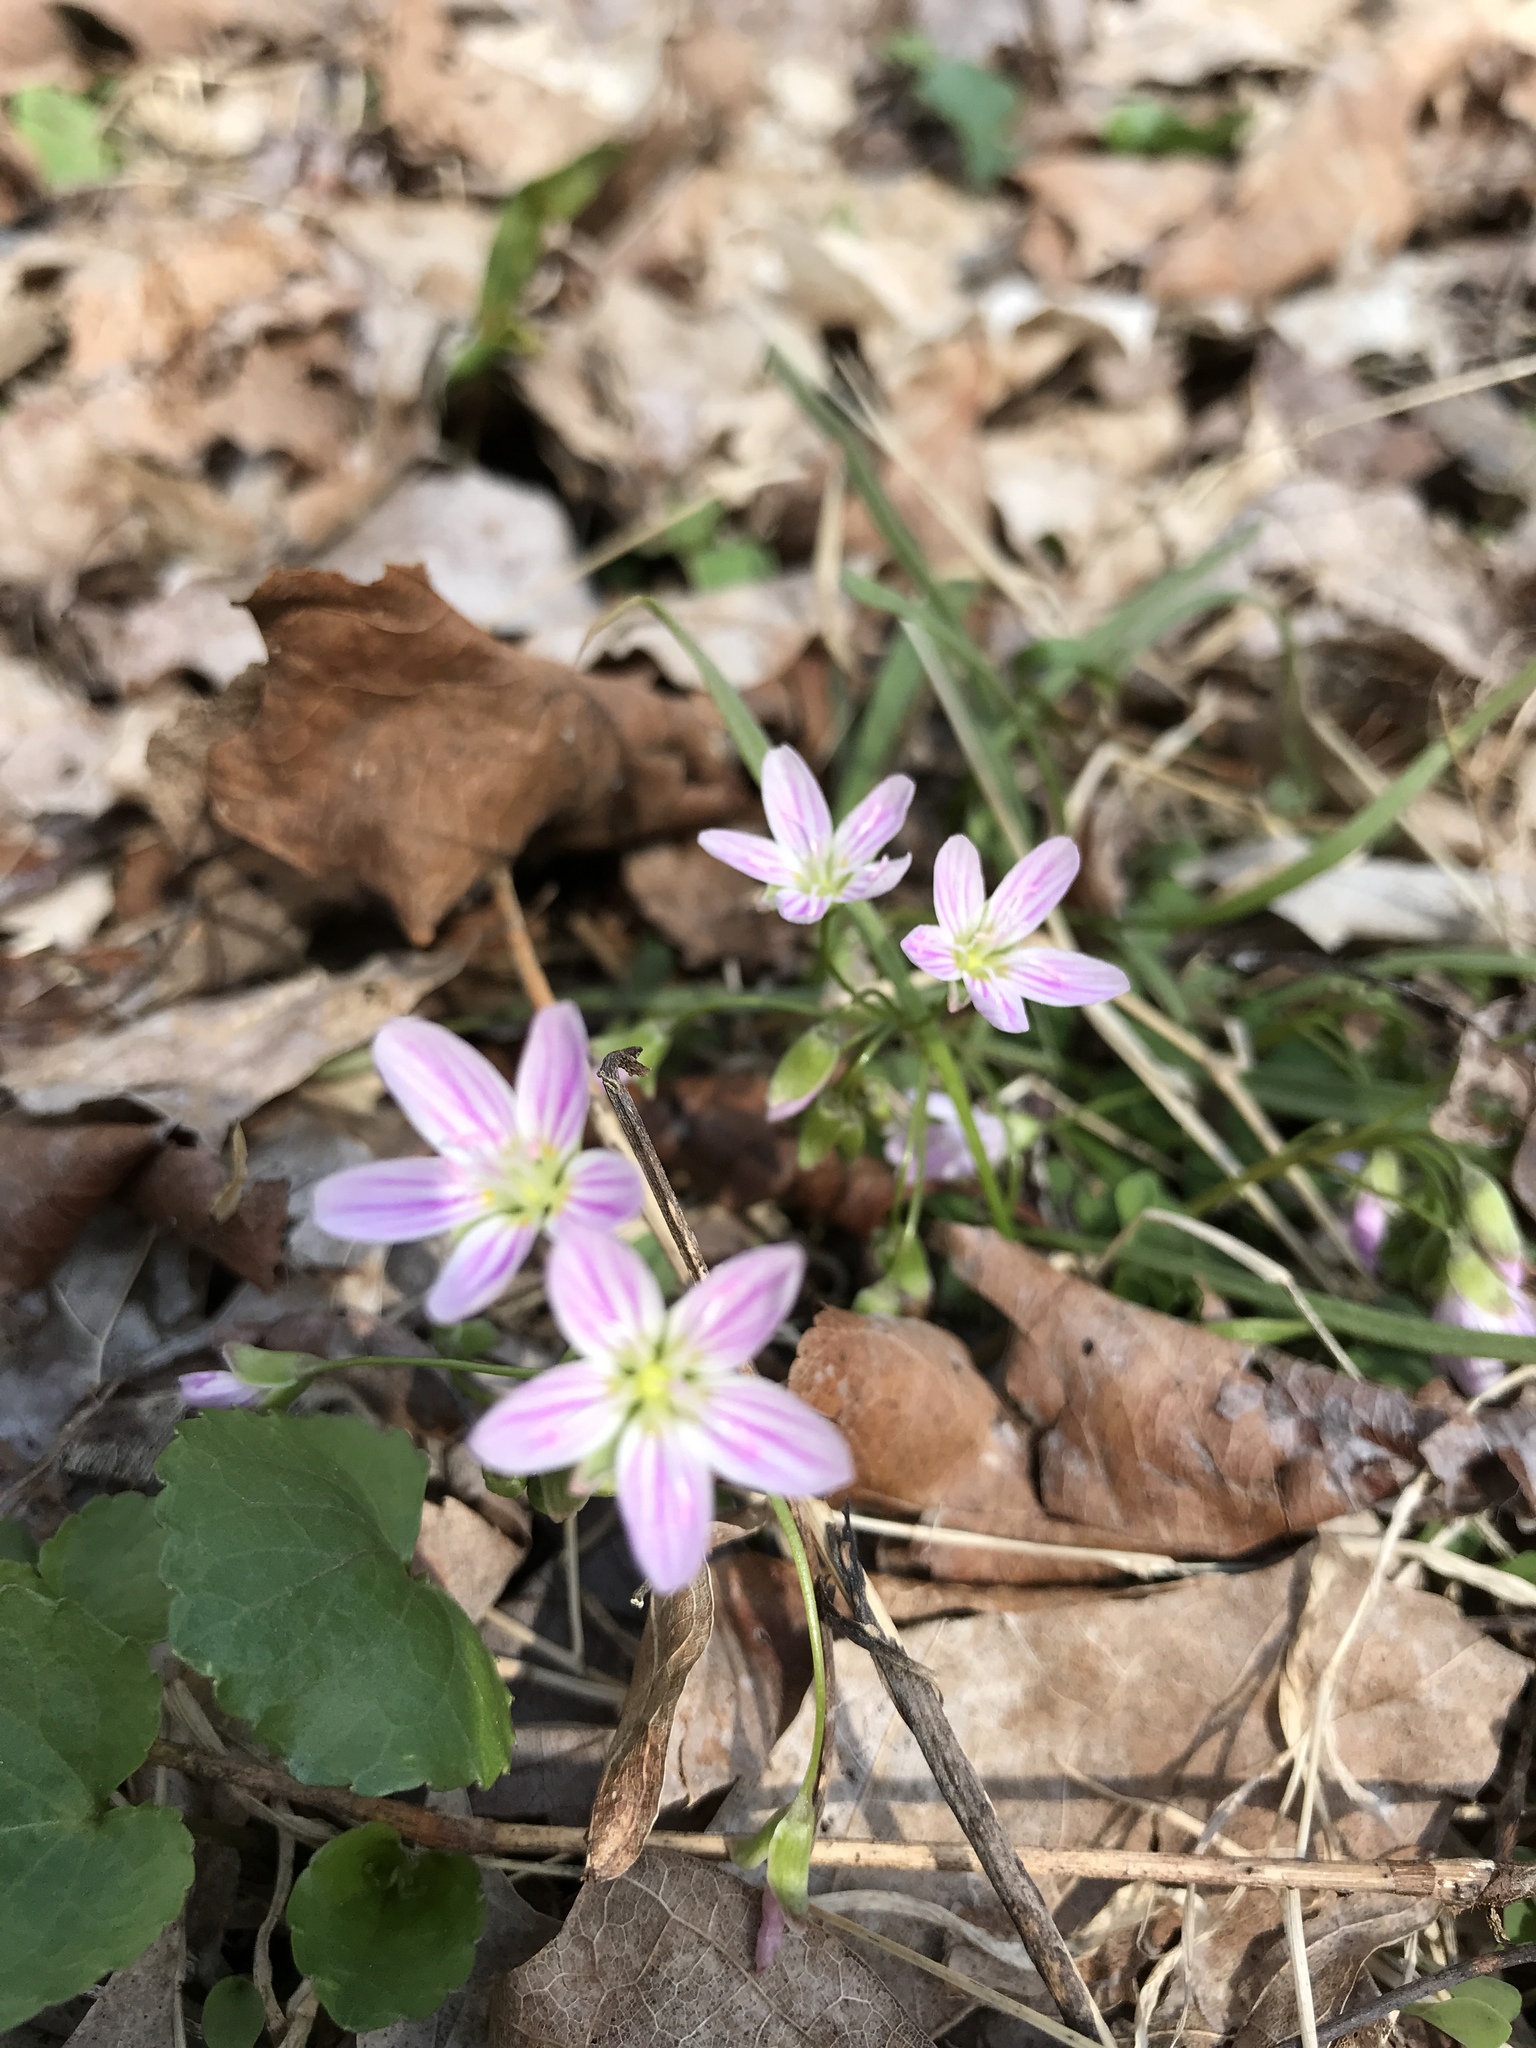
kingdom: Plantae
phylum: Tracheophyta
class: Magnoliopsida
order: Caryophyllales
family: Montiaceae
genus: Claytonia
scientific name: Claytonia virginica
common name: Virginia springbeauty
